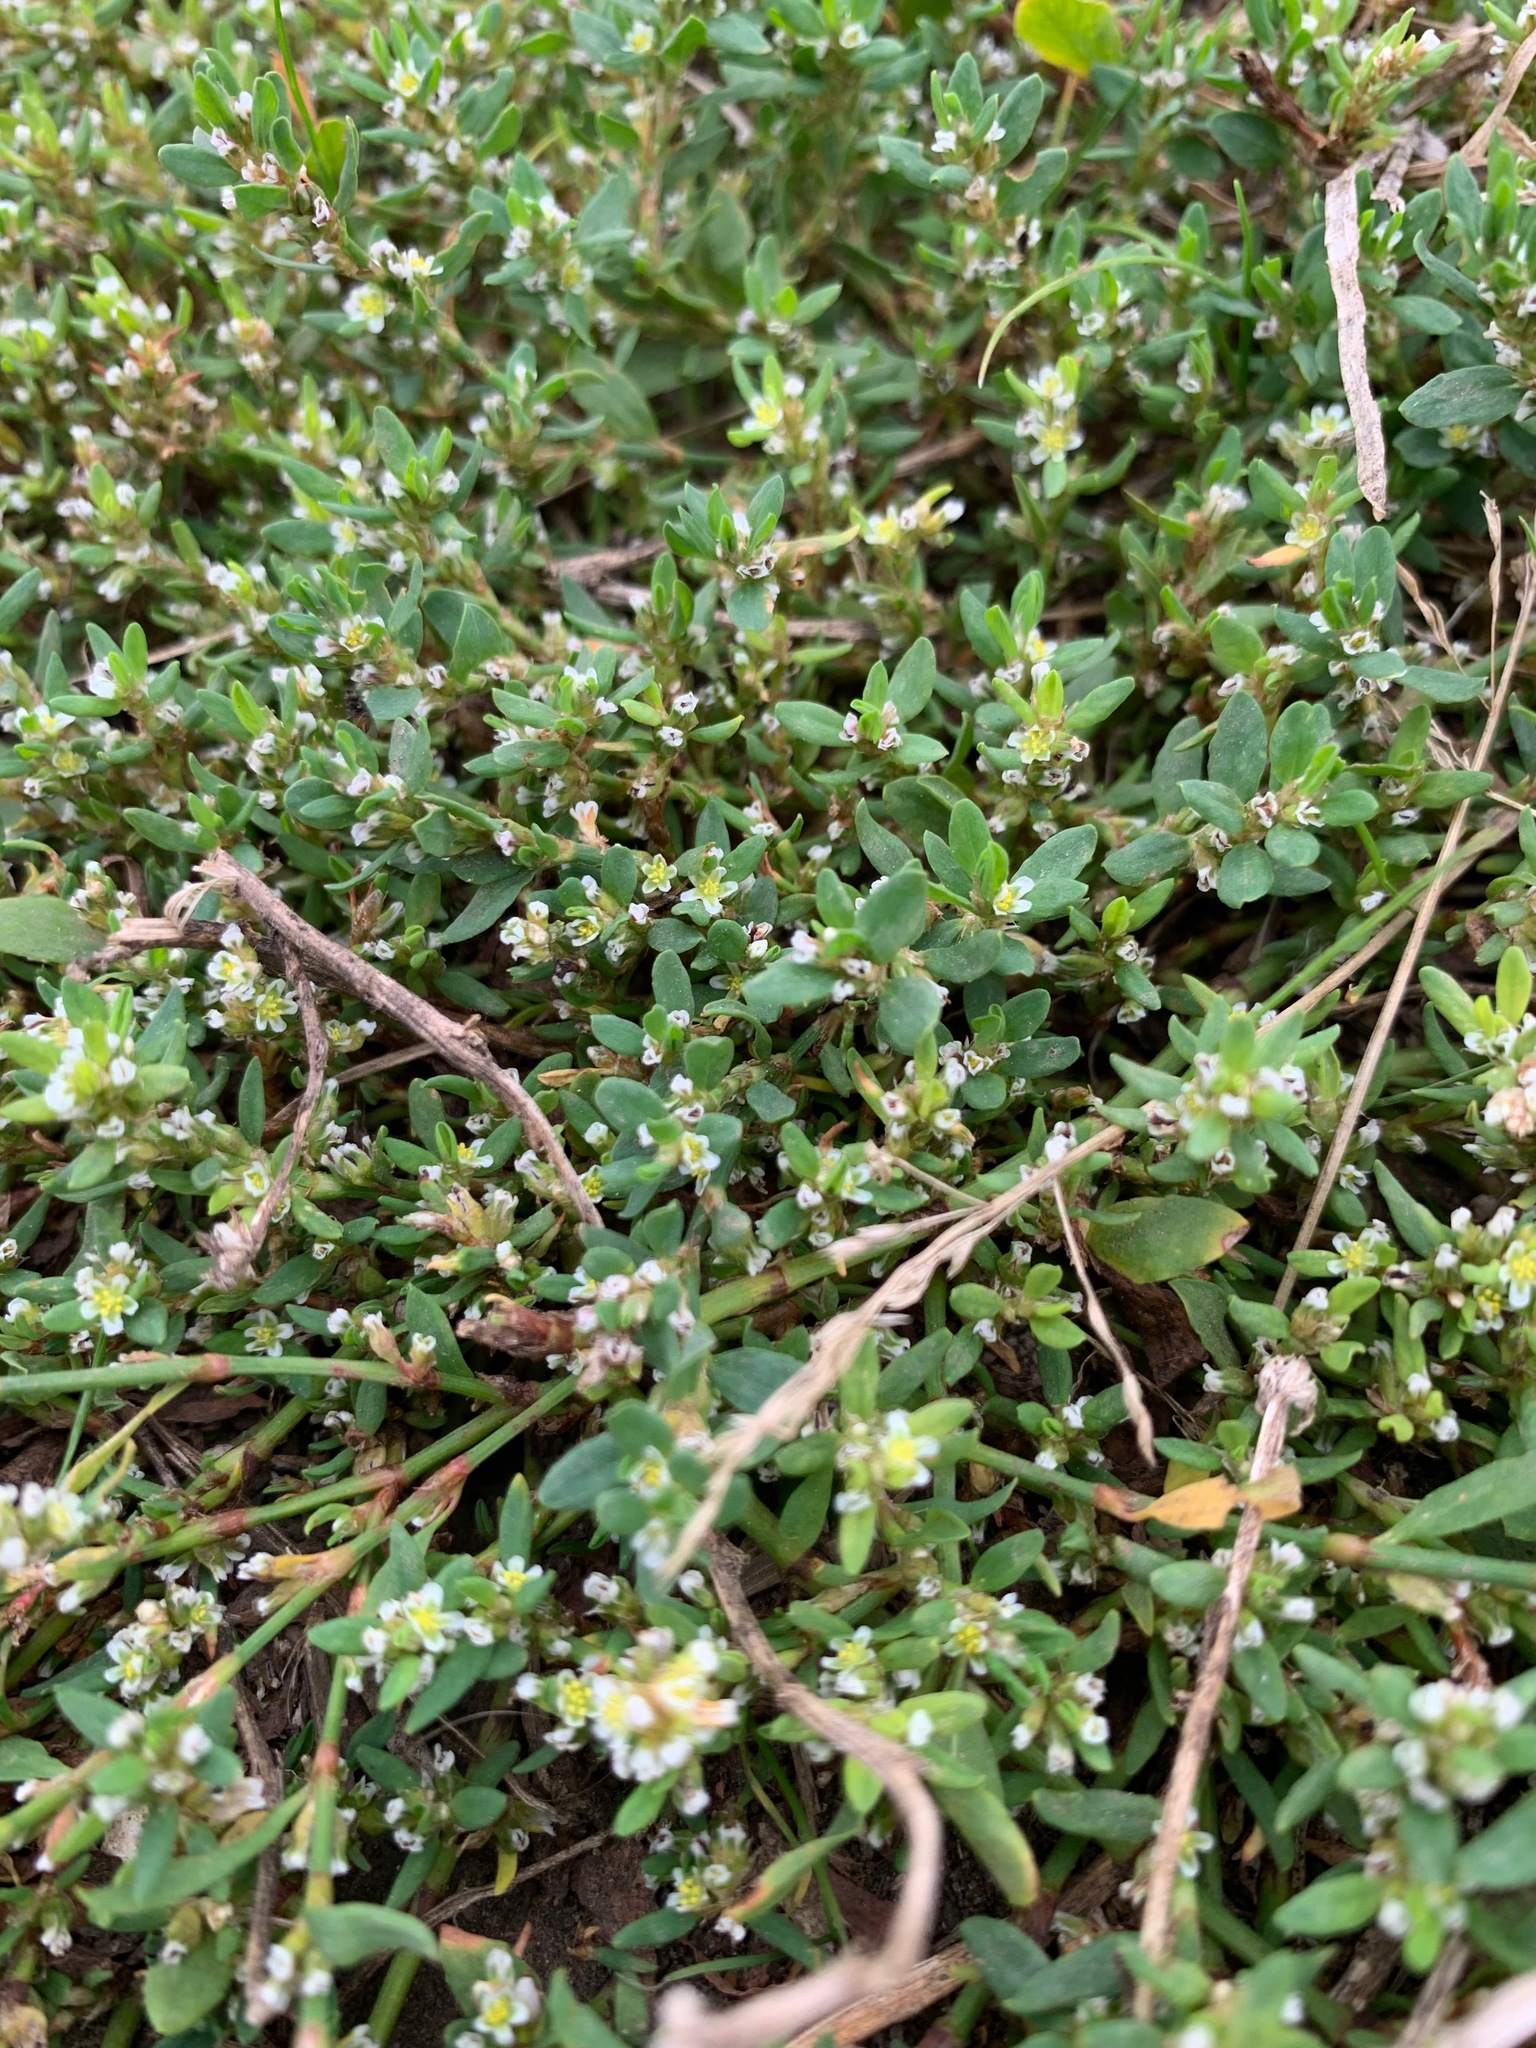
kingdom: Plantae
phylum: Tracheophyta
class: Magnoliopsida
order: Caryophyllales
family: Polygonaceae
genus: Polygonum
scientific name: Polygonum aviculare
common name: Prostrate knotweed
